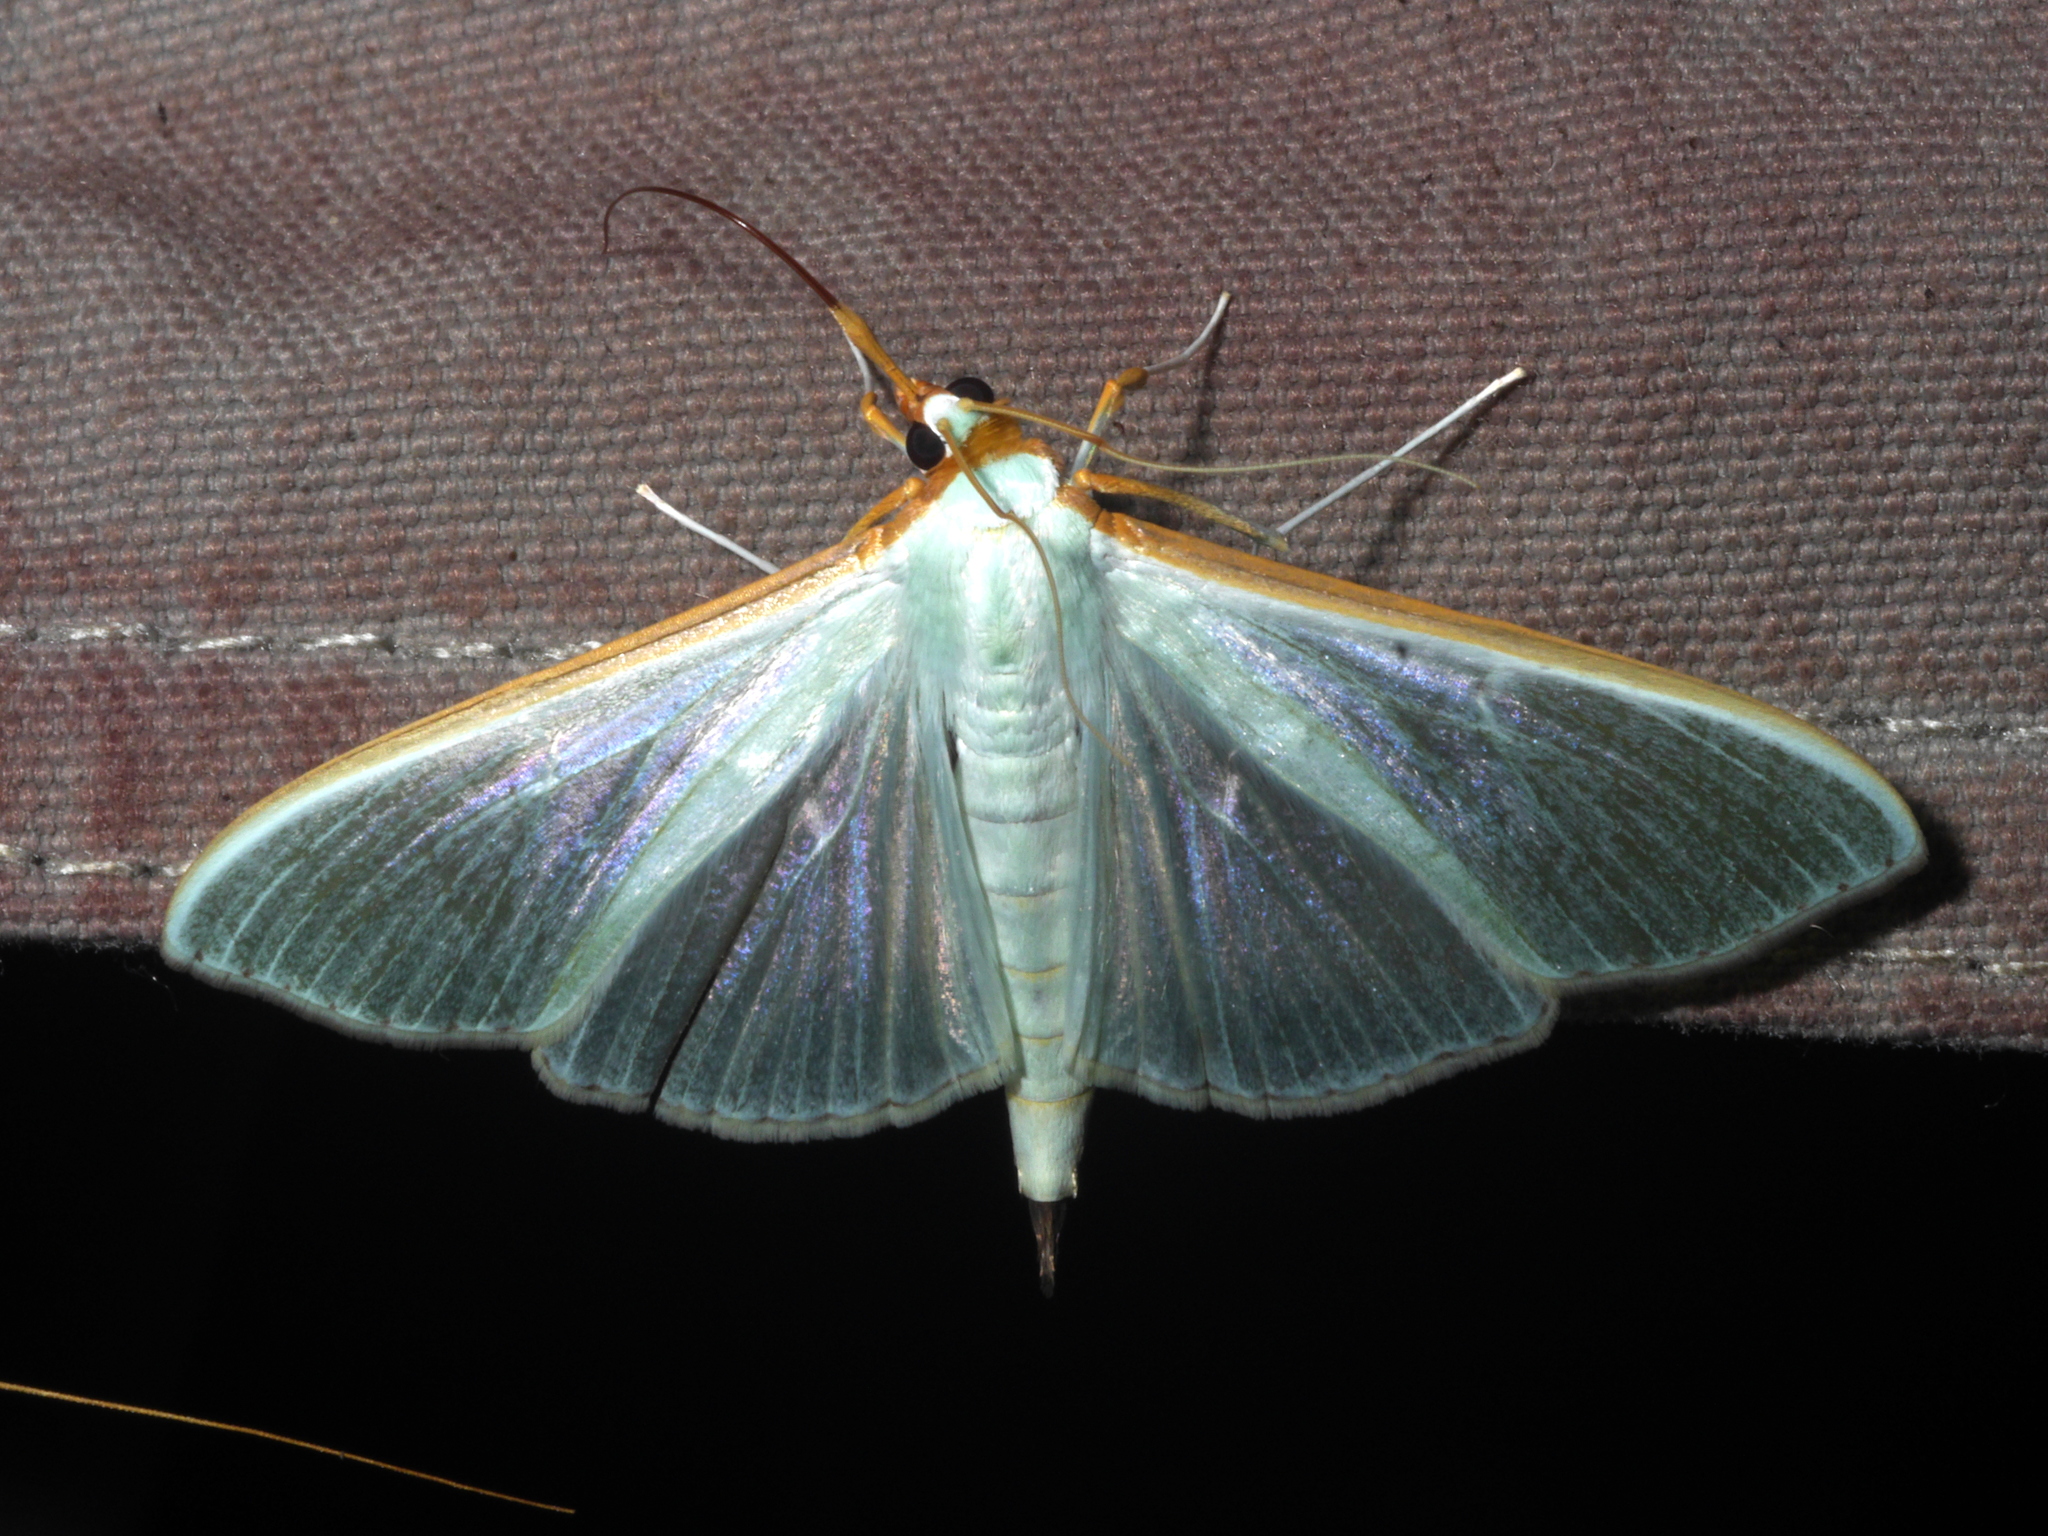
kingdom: Animalia
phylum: Arthropoda
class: Insecta
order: Lepidoptera
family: Crambidae
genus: Stemorrhages
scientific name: Stemorrhages sericea
